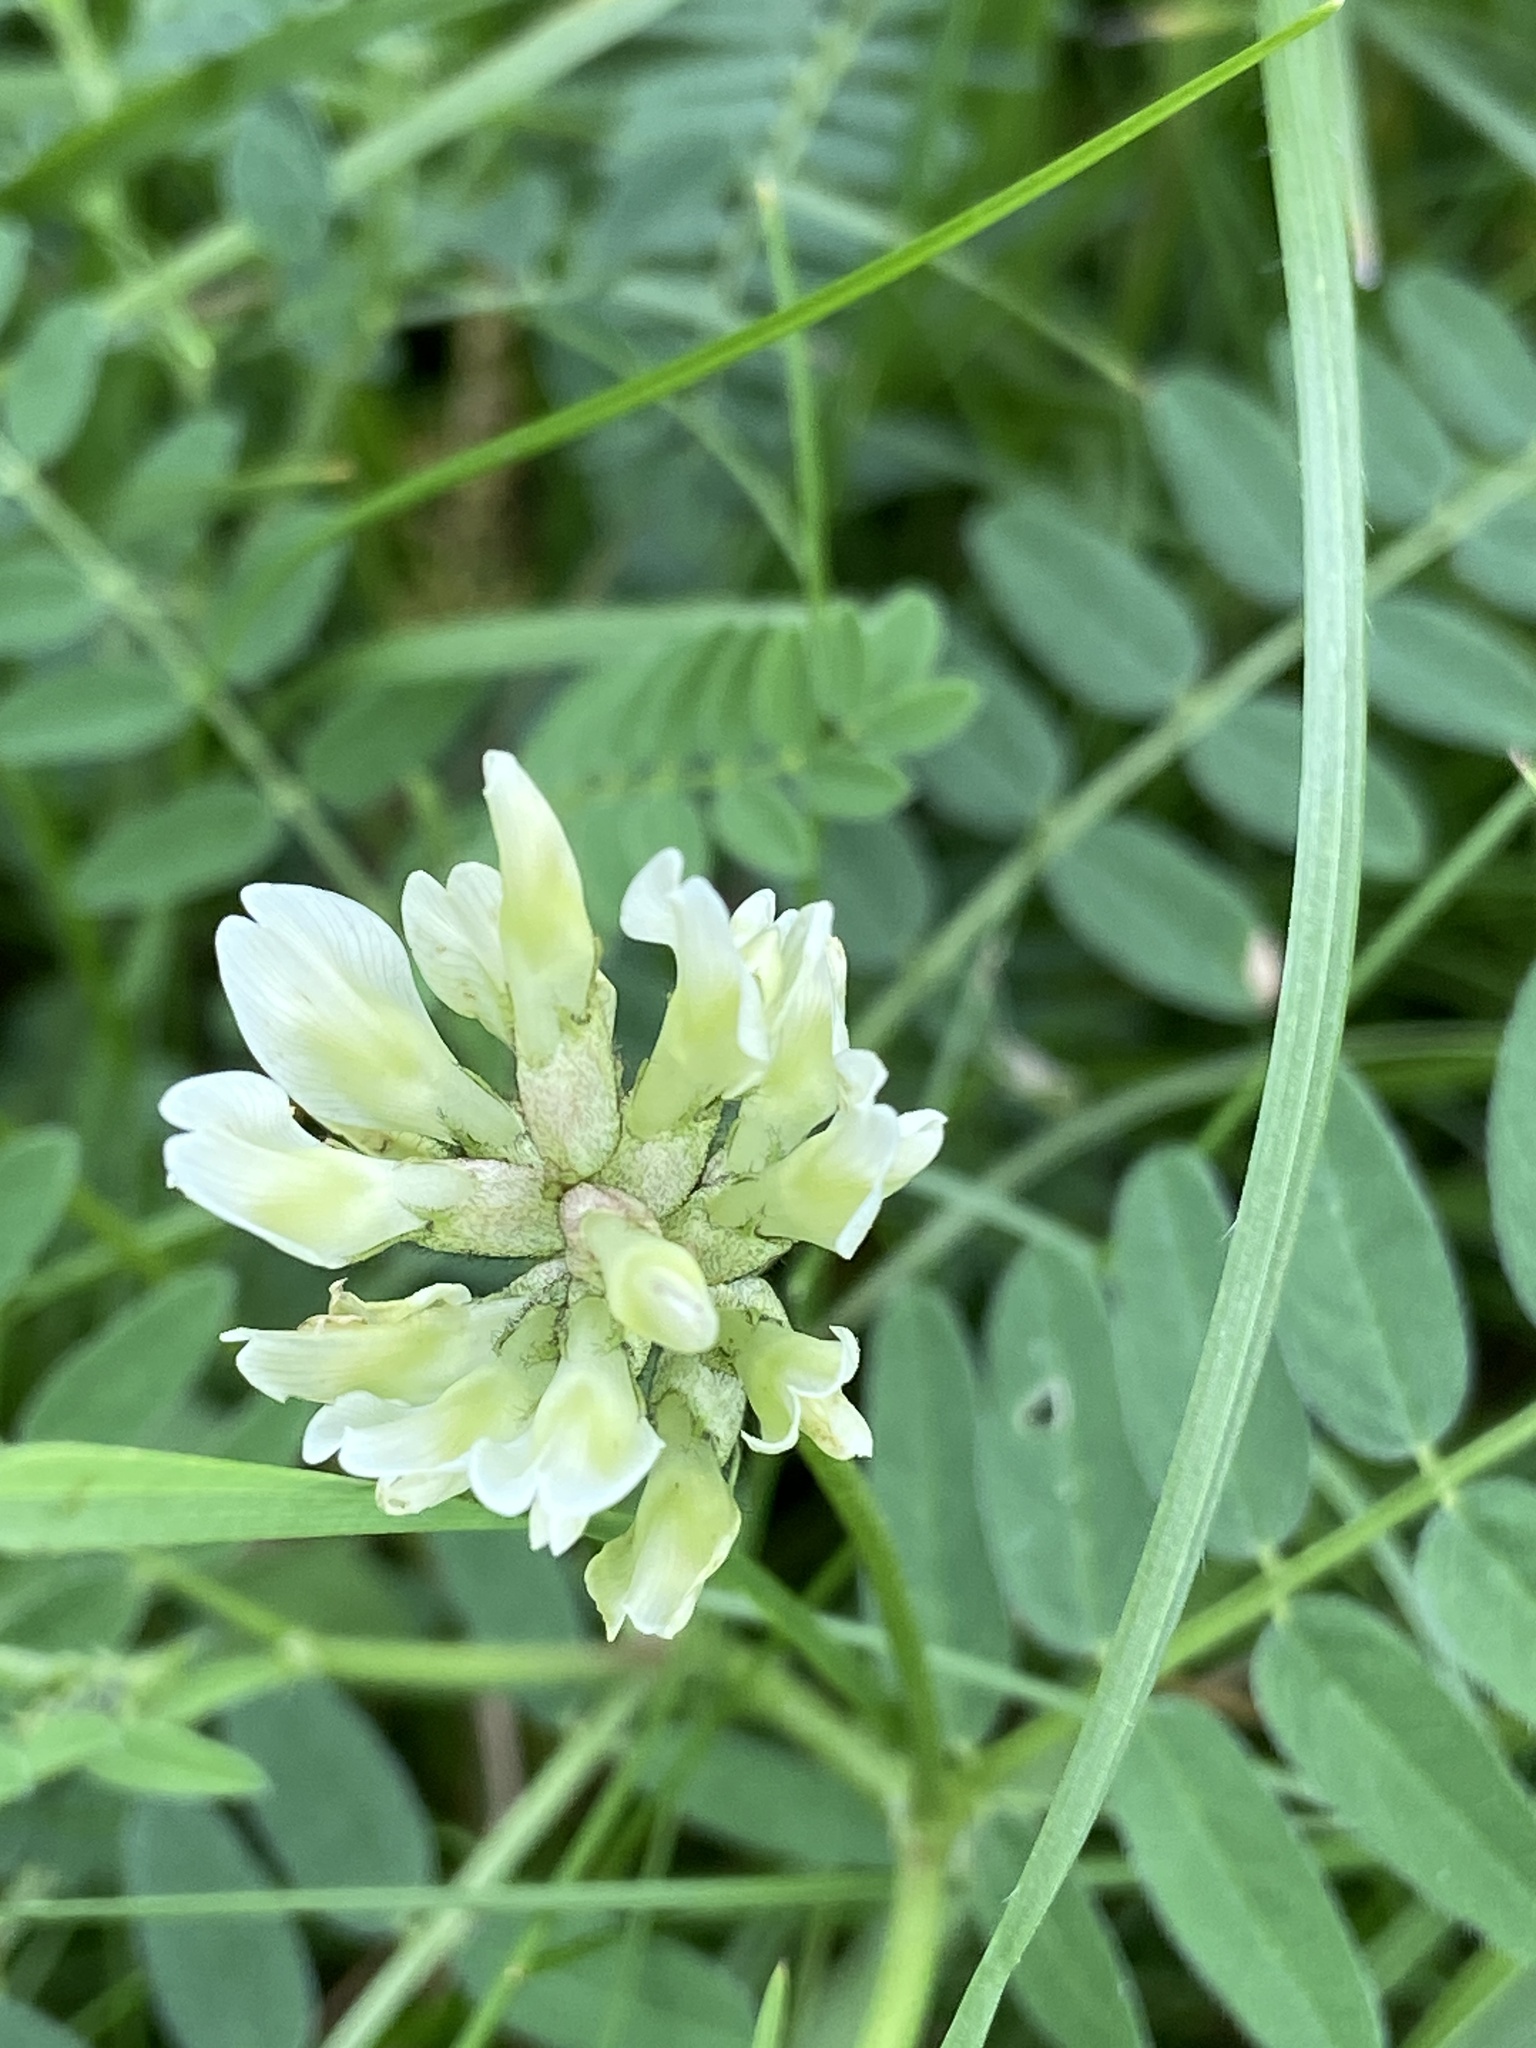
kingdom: Plantae
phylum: Tracheophyta
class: Magnoliopsida
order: Fabales
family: Fabaceae
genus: Astragalus
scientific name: Astragalus cicer
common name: Chick-pea milk-vetch
